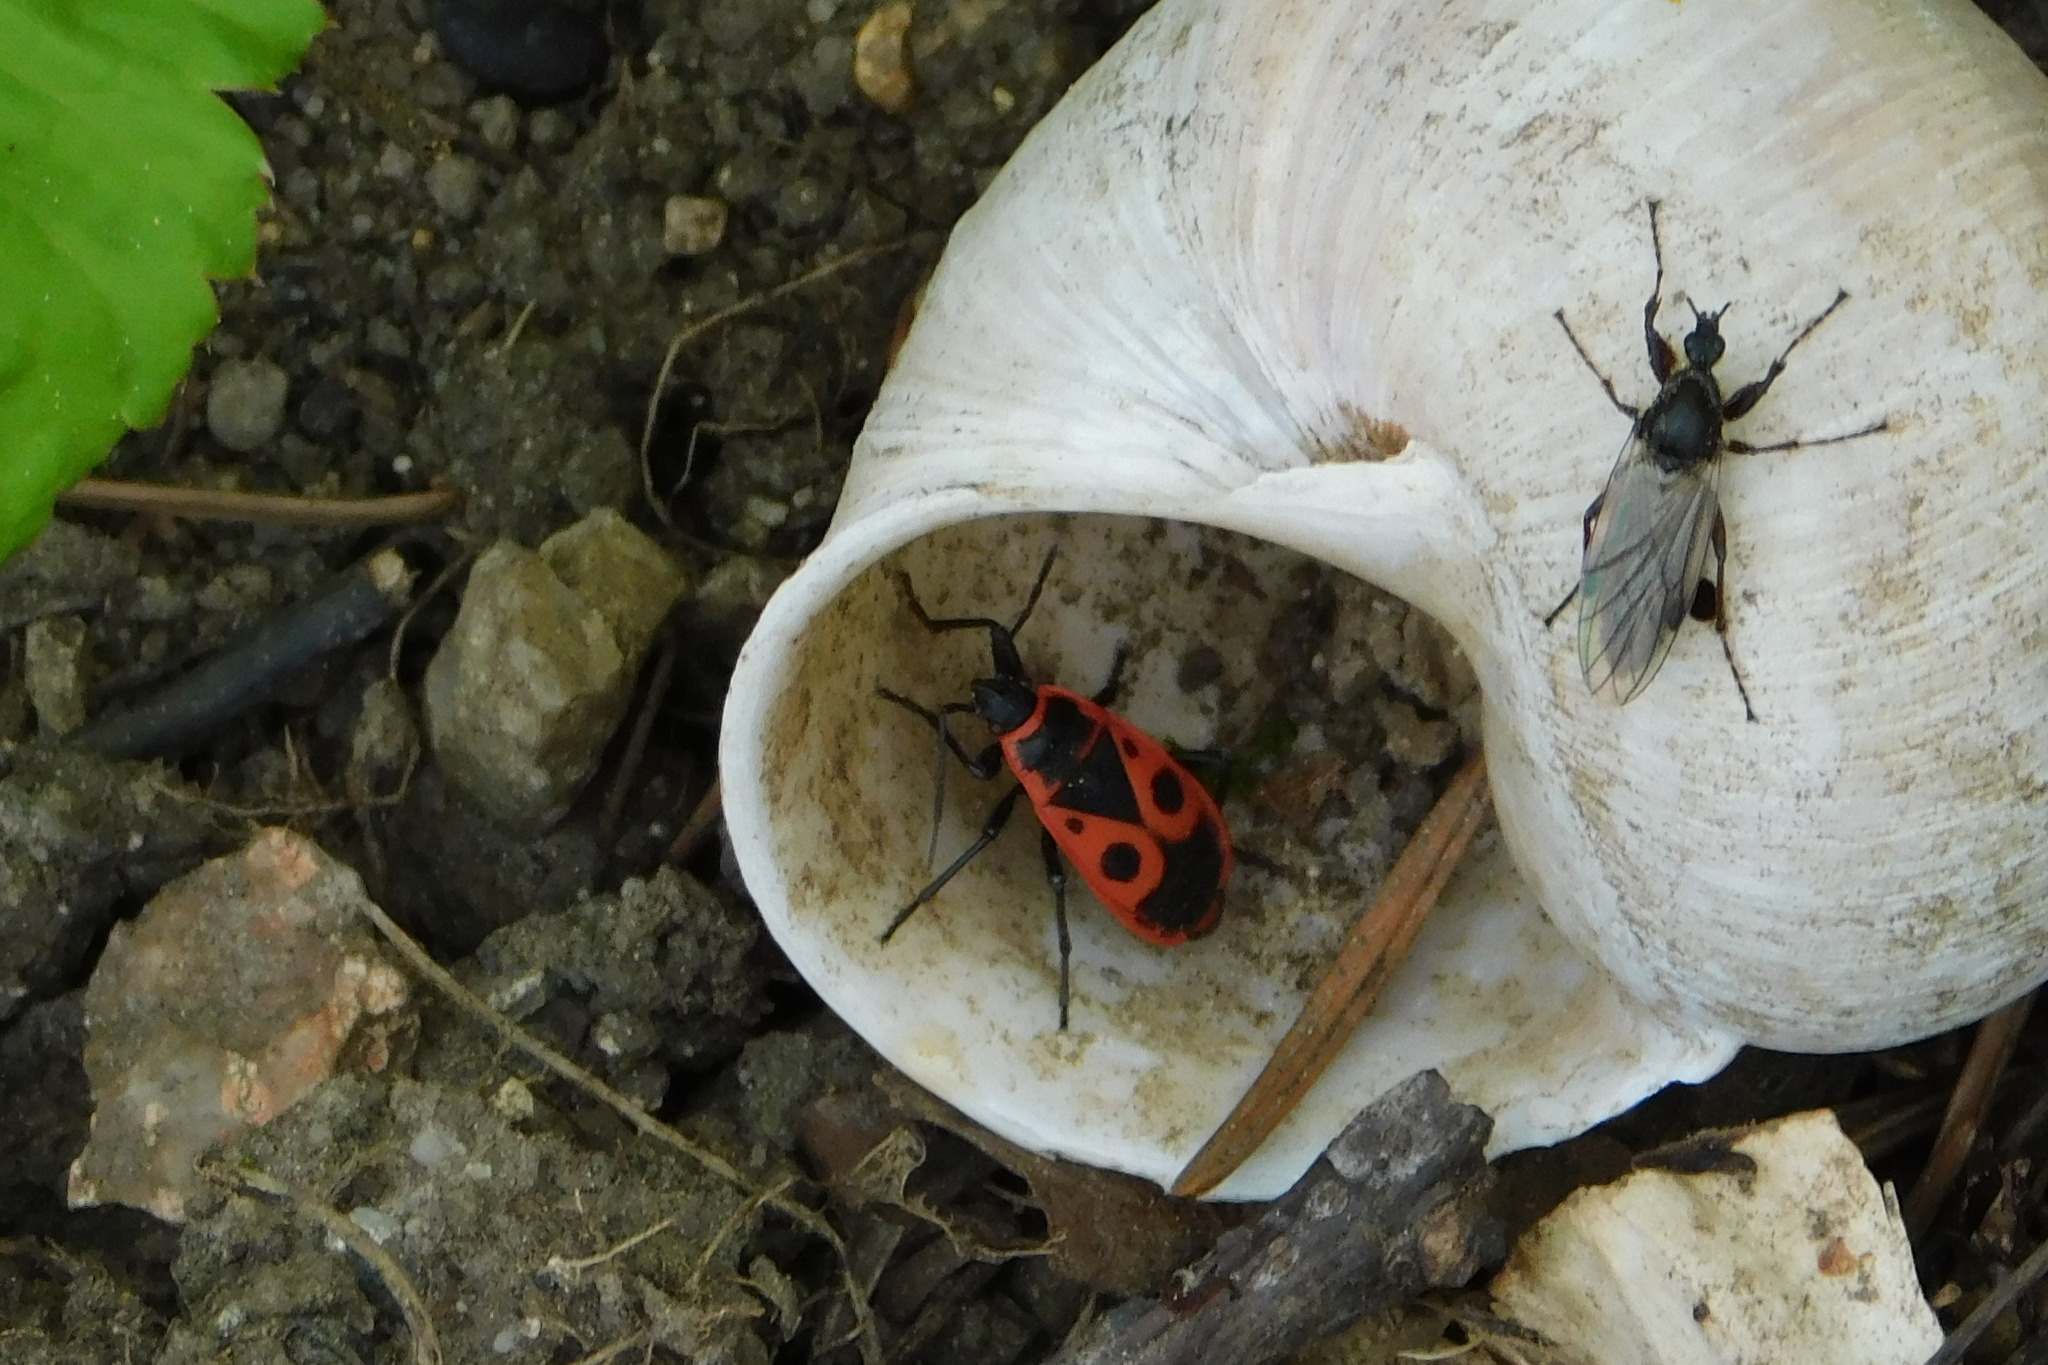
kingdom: Animalia
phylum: Arthropoda
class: Insecta
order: Hemiptera
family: Pyrrhocoridae
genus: Pyrrhocoris
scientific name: Pyrrhocoris apterus
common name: Firebug
